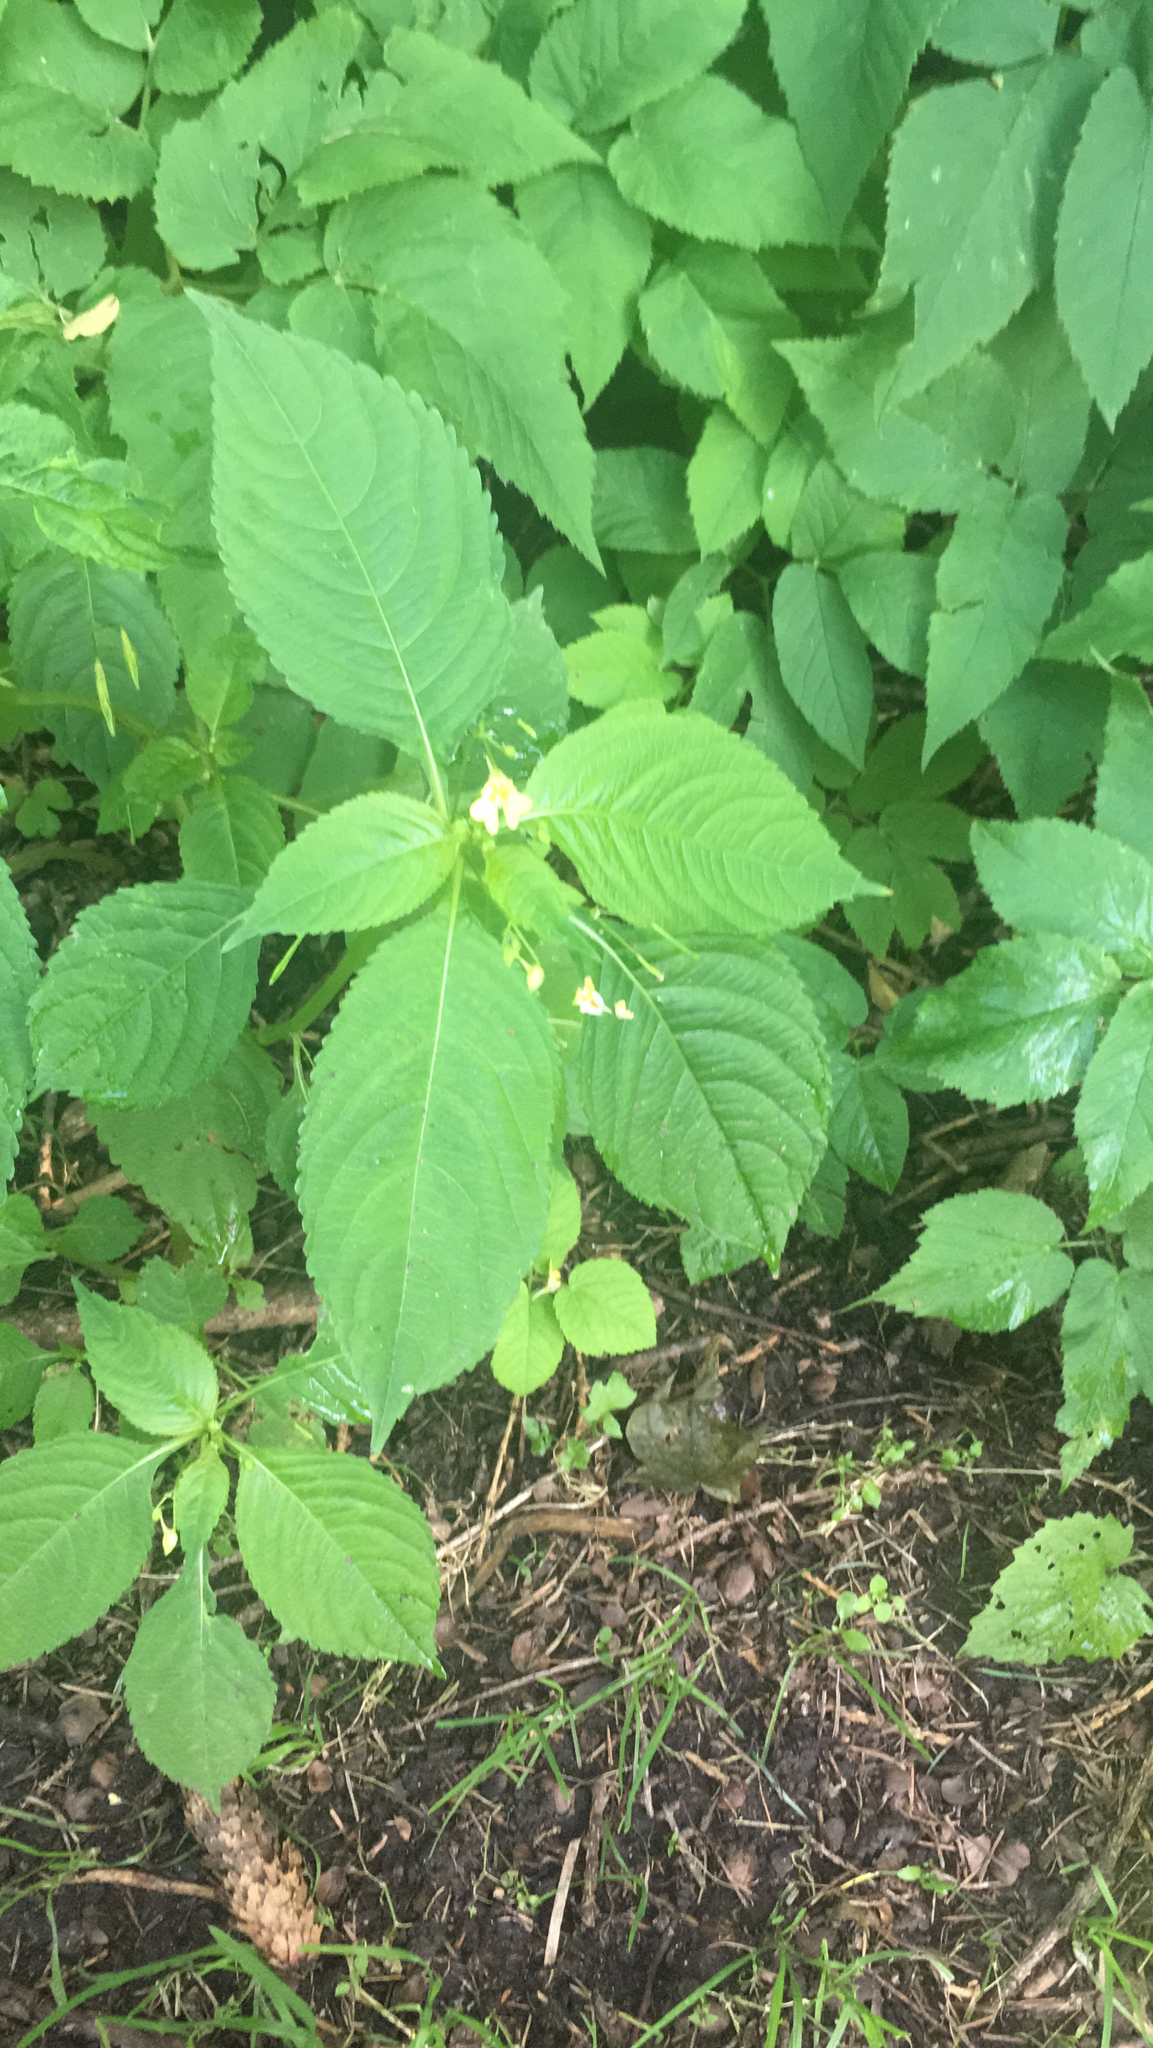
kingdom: Plantae
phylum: Tracheophyta
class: Magnoliopsida
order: Ericales
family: Balsaminaceae
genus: Impatiens
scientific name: Impatiens parviflora
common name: Small balsam
